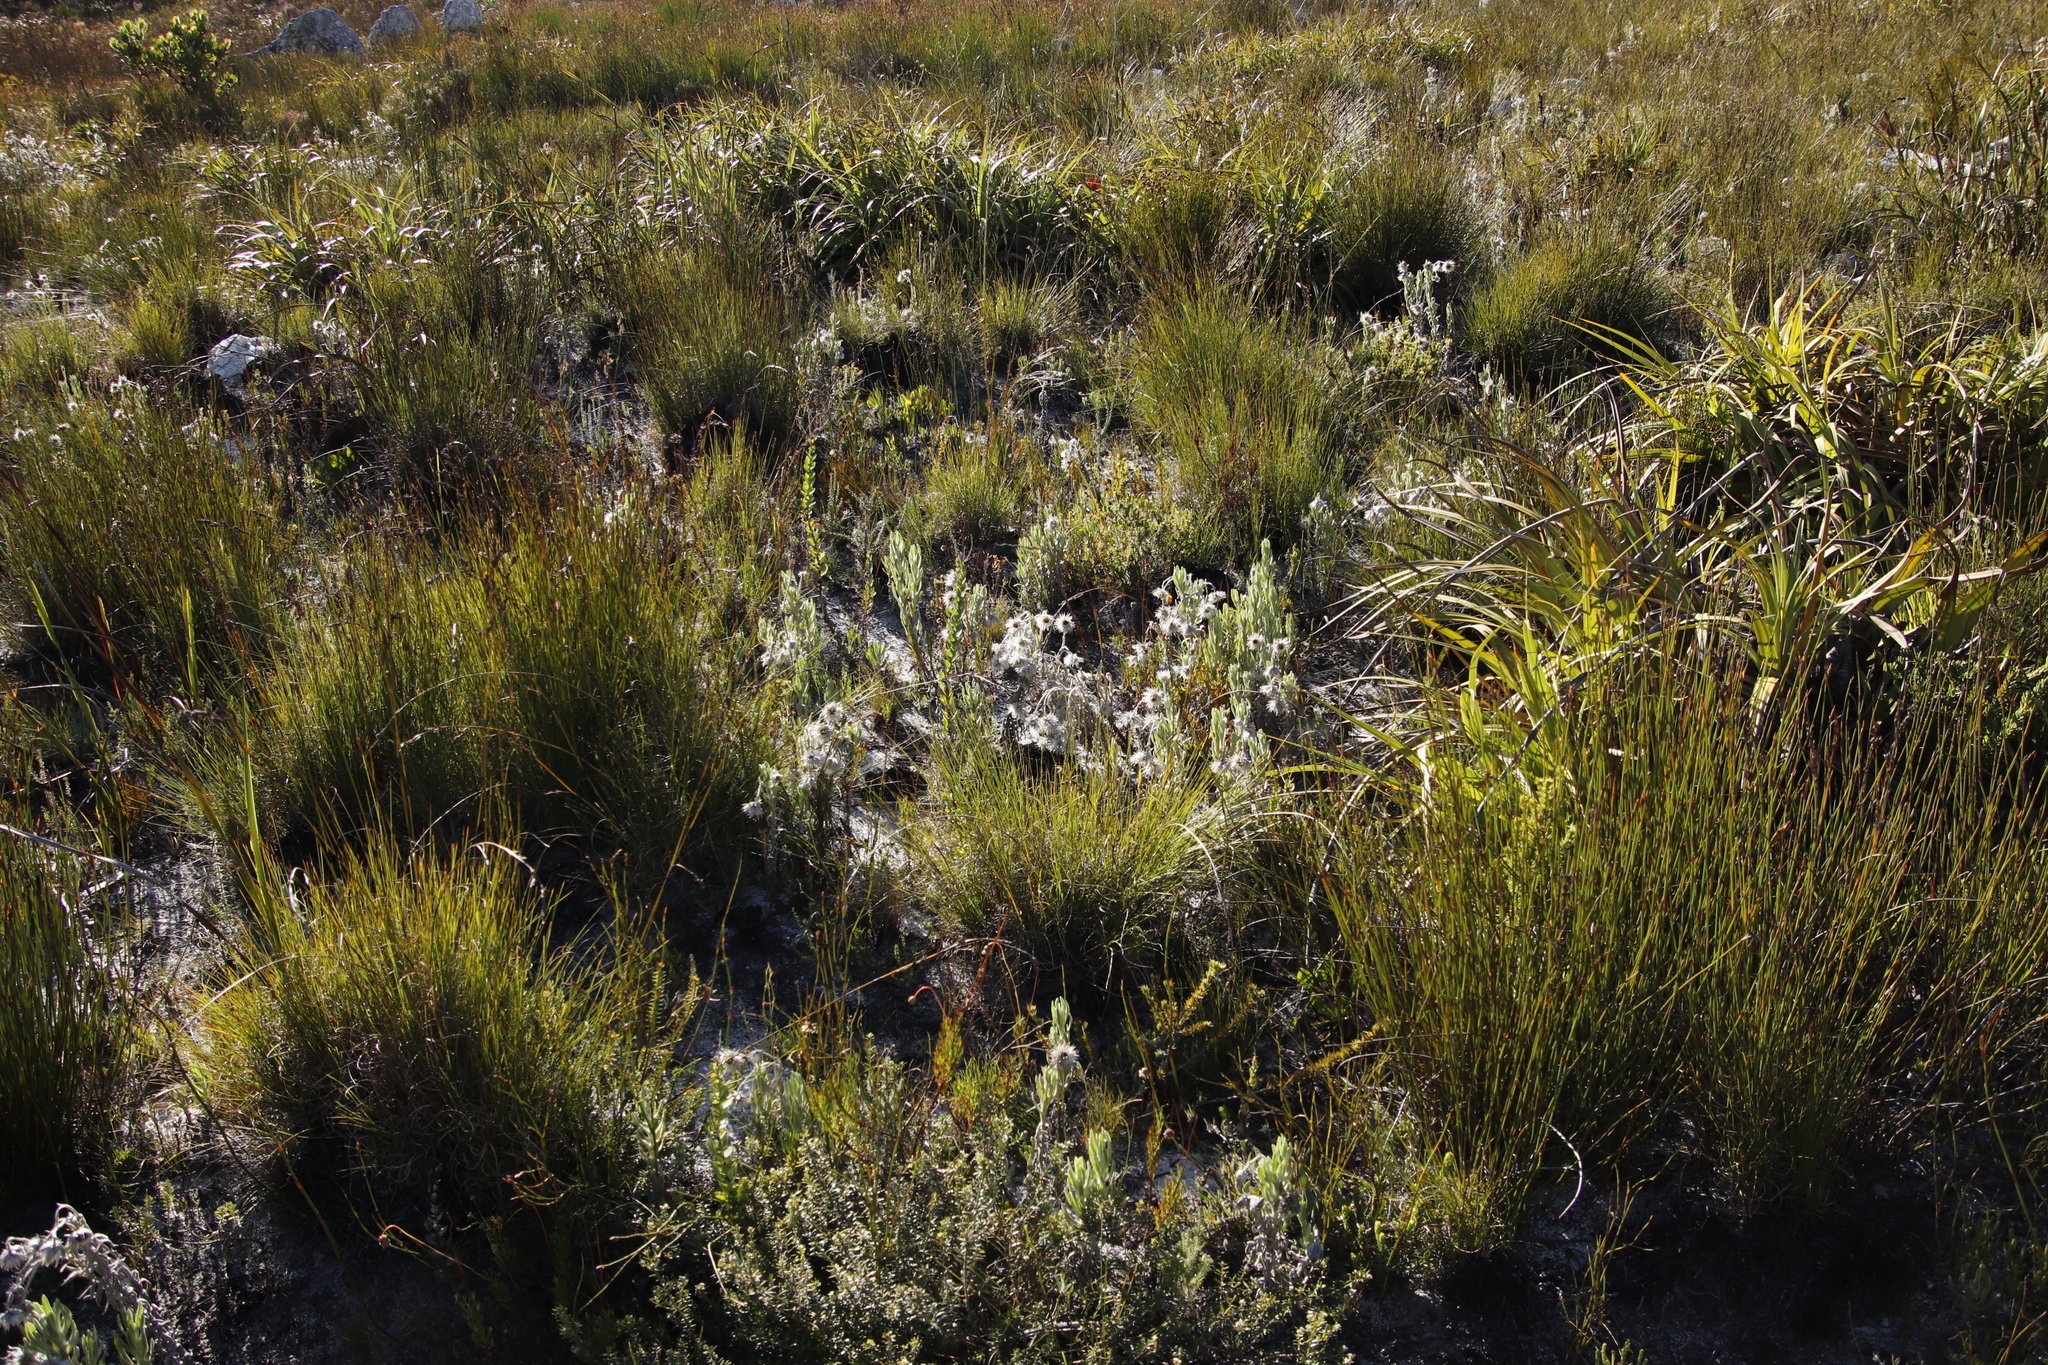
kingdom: Plantae
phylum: Tracheophyta
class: Magnoliopsida
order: Asterales
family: Asteraceae
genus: Syncarpha
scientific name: Syncarpha vestita
